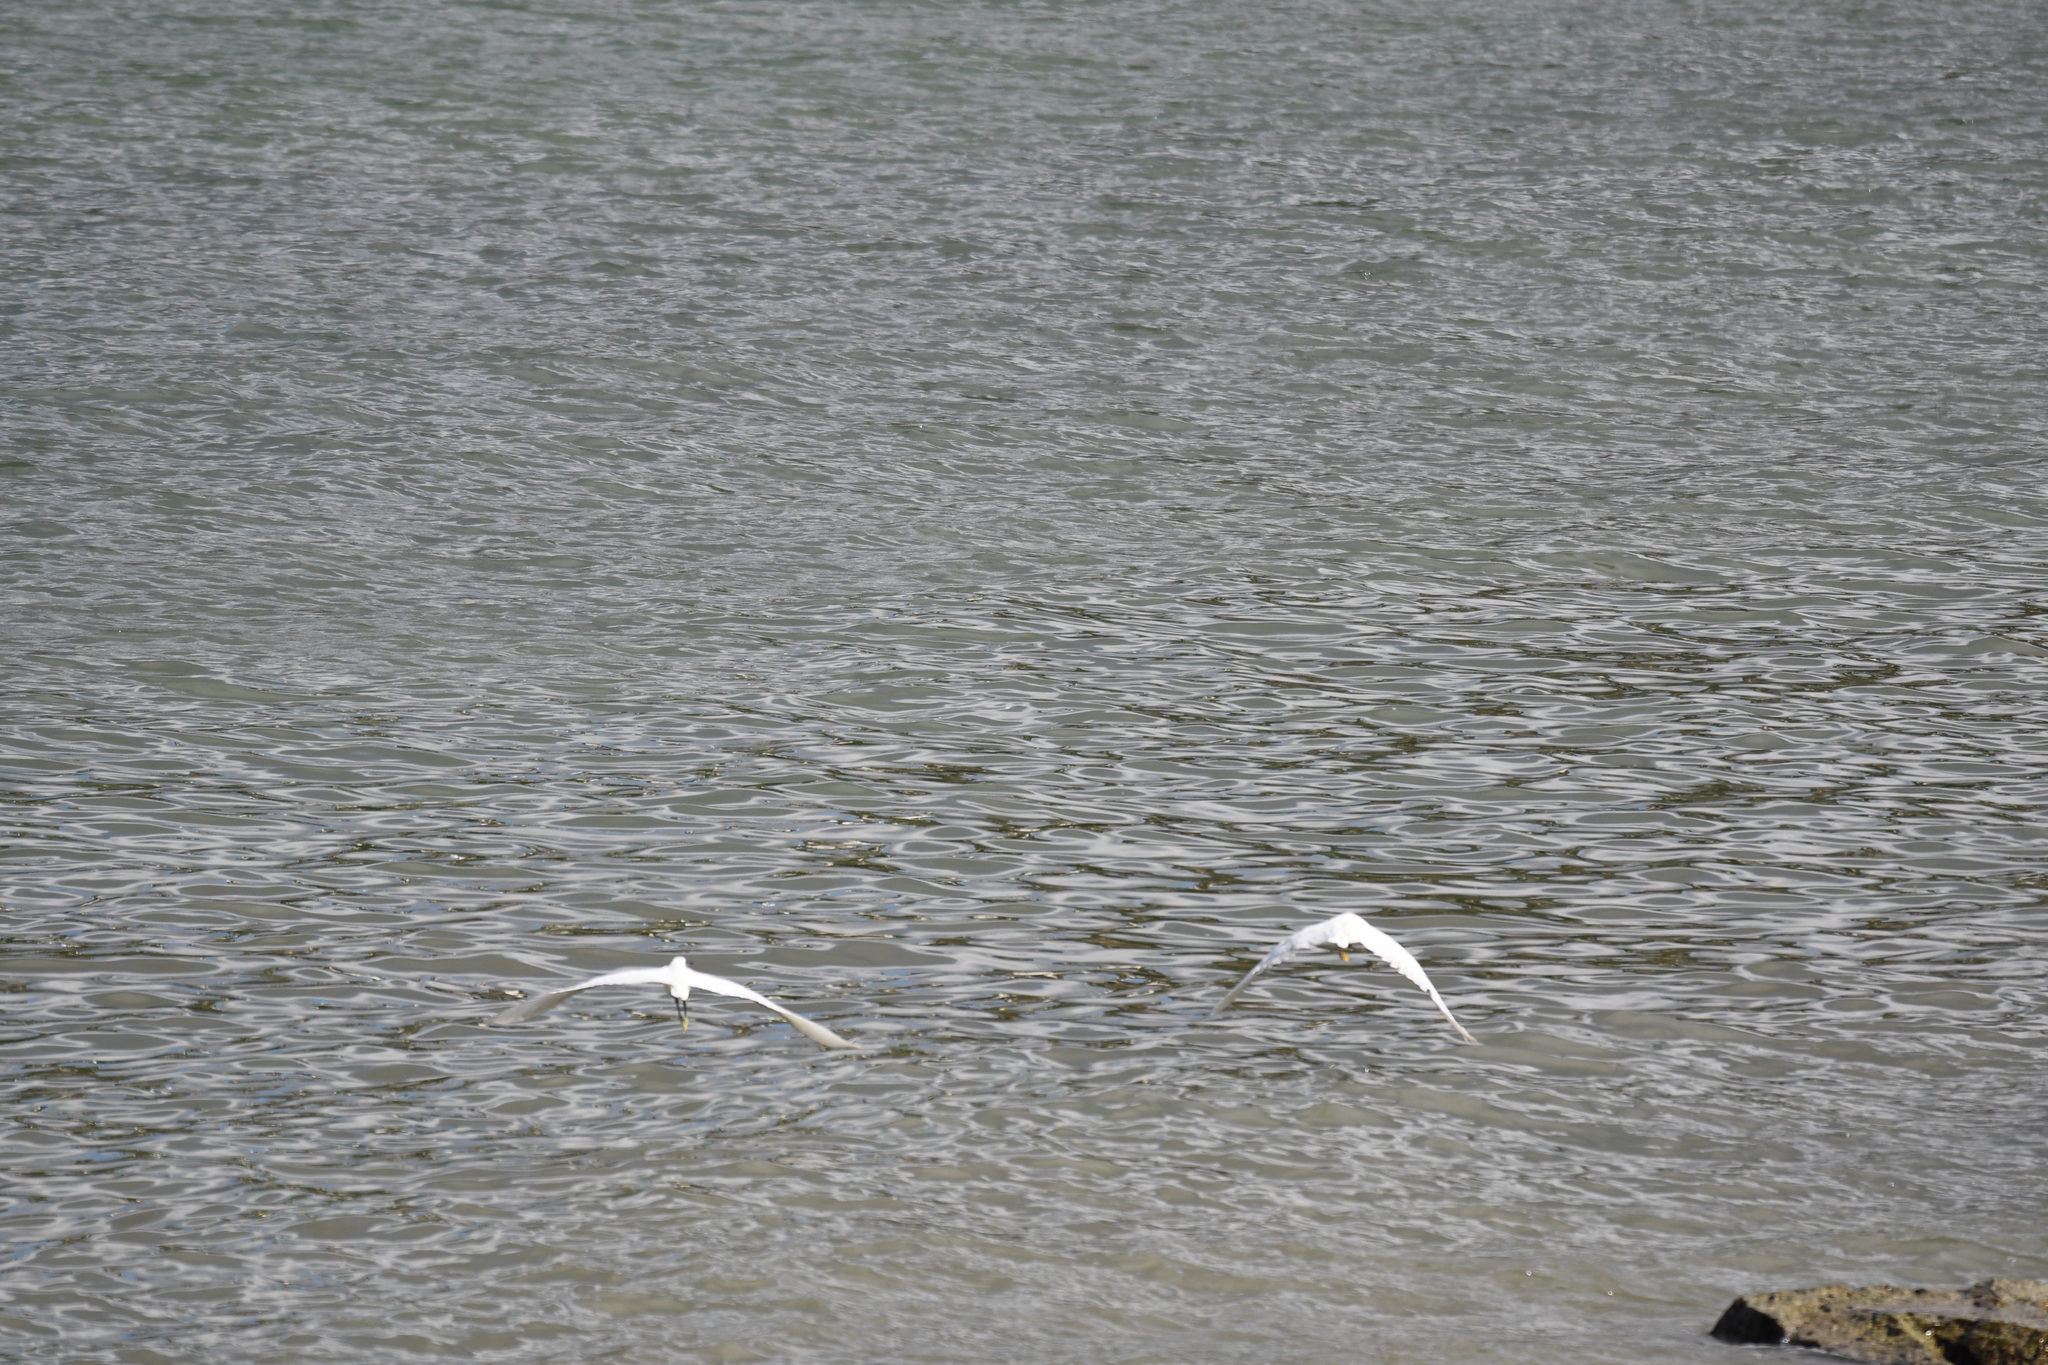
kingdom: Animalia
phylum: Chordata
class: Aves
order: Pelecaniformes
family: Ardeidae
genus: Egretta
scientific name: Egretta garzetta
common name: Little egret
